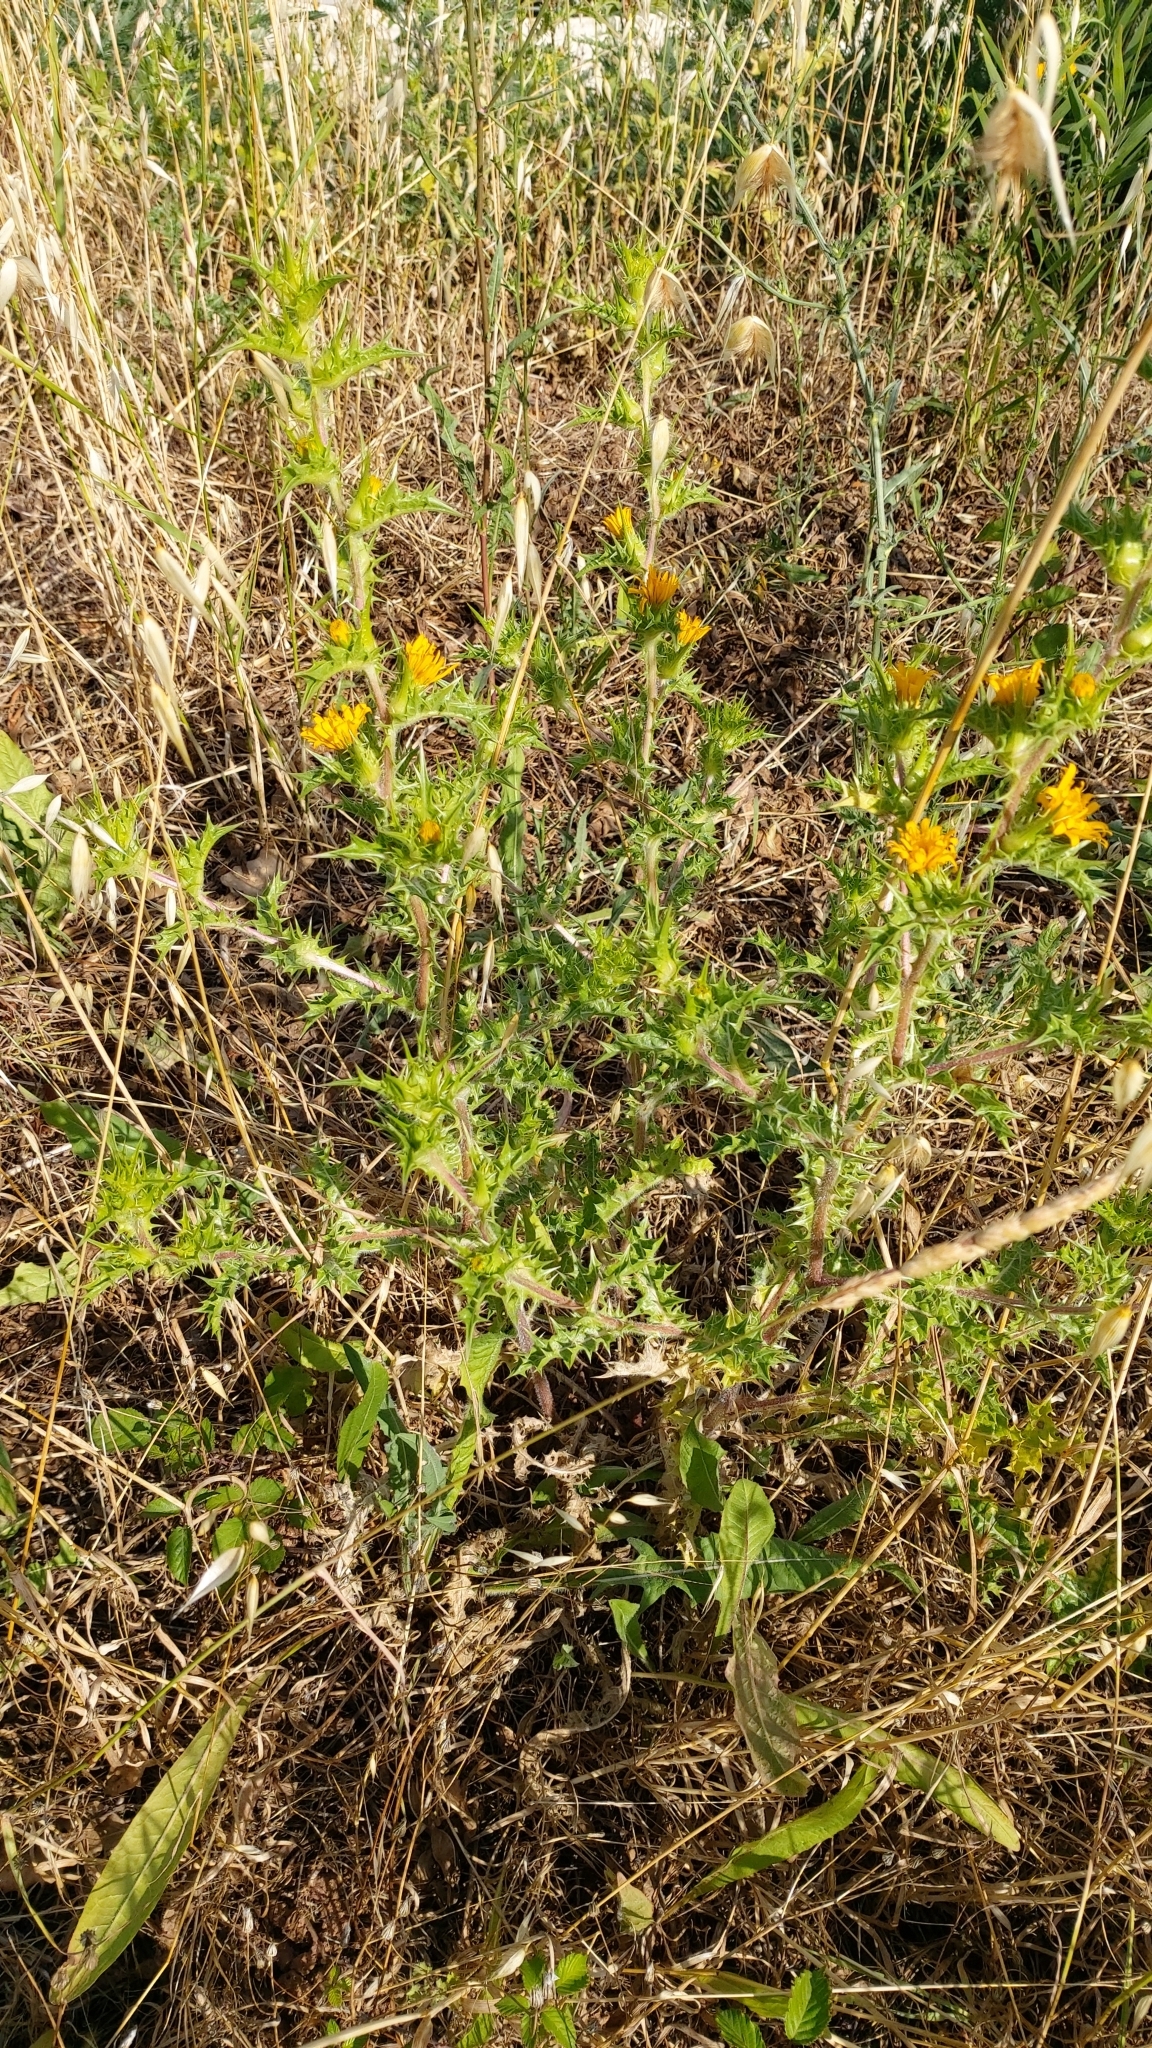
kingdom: Plantae
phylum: Tracheophyta
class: Magnoliopsida
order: Asterales
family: Asteraceae
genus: Scolymus
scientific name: Scolymus hispanicus
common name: Golden thistle
